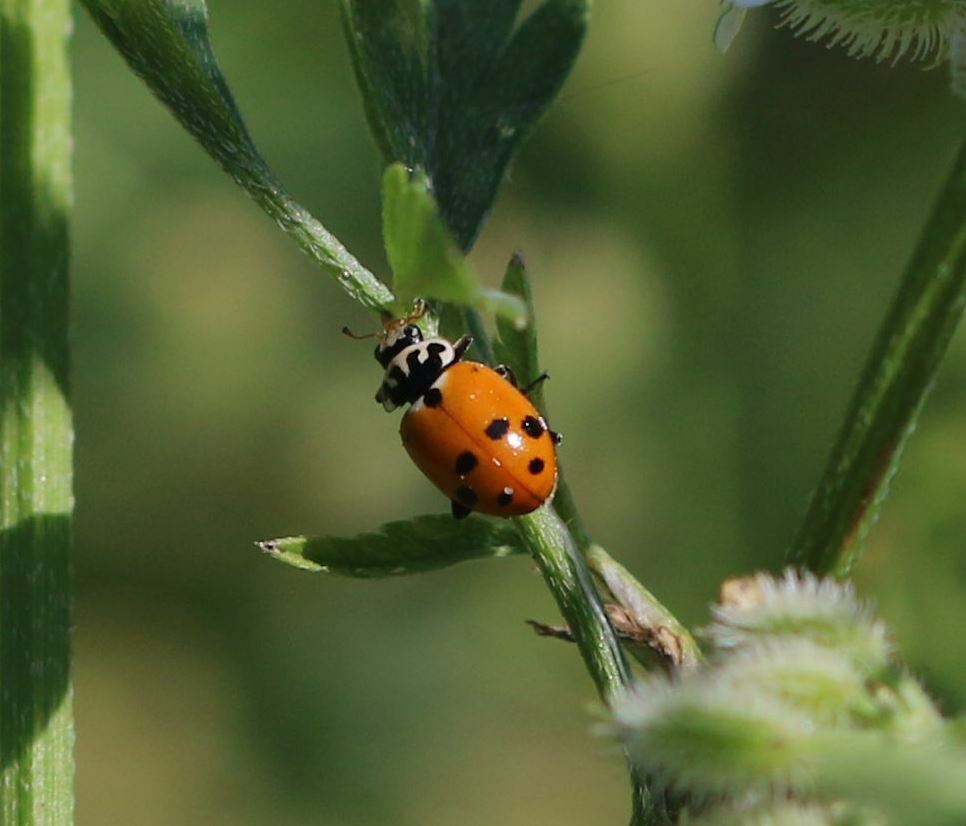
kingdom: Animalia
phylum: Arthropoda
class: Insecta
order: Coleoptera
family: Coccinellidae
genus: Hippodamia
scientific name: Hippodamia variegata
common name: Ladybird beetle
